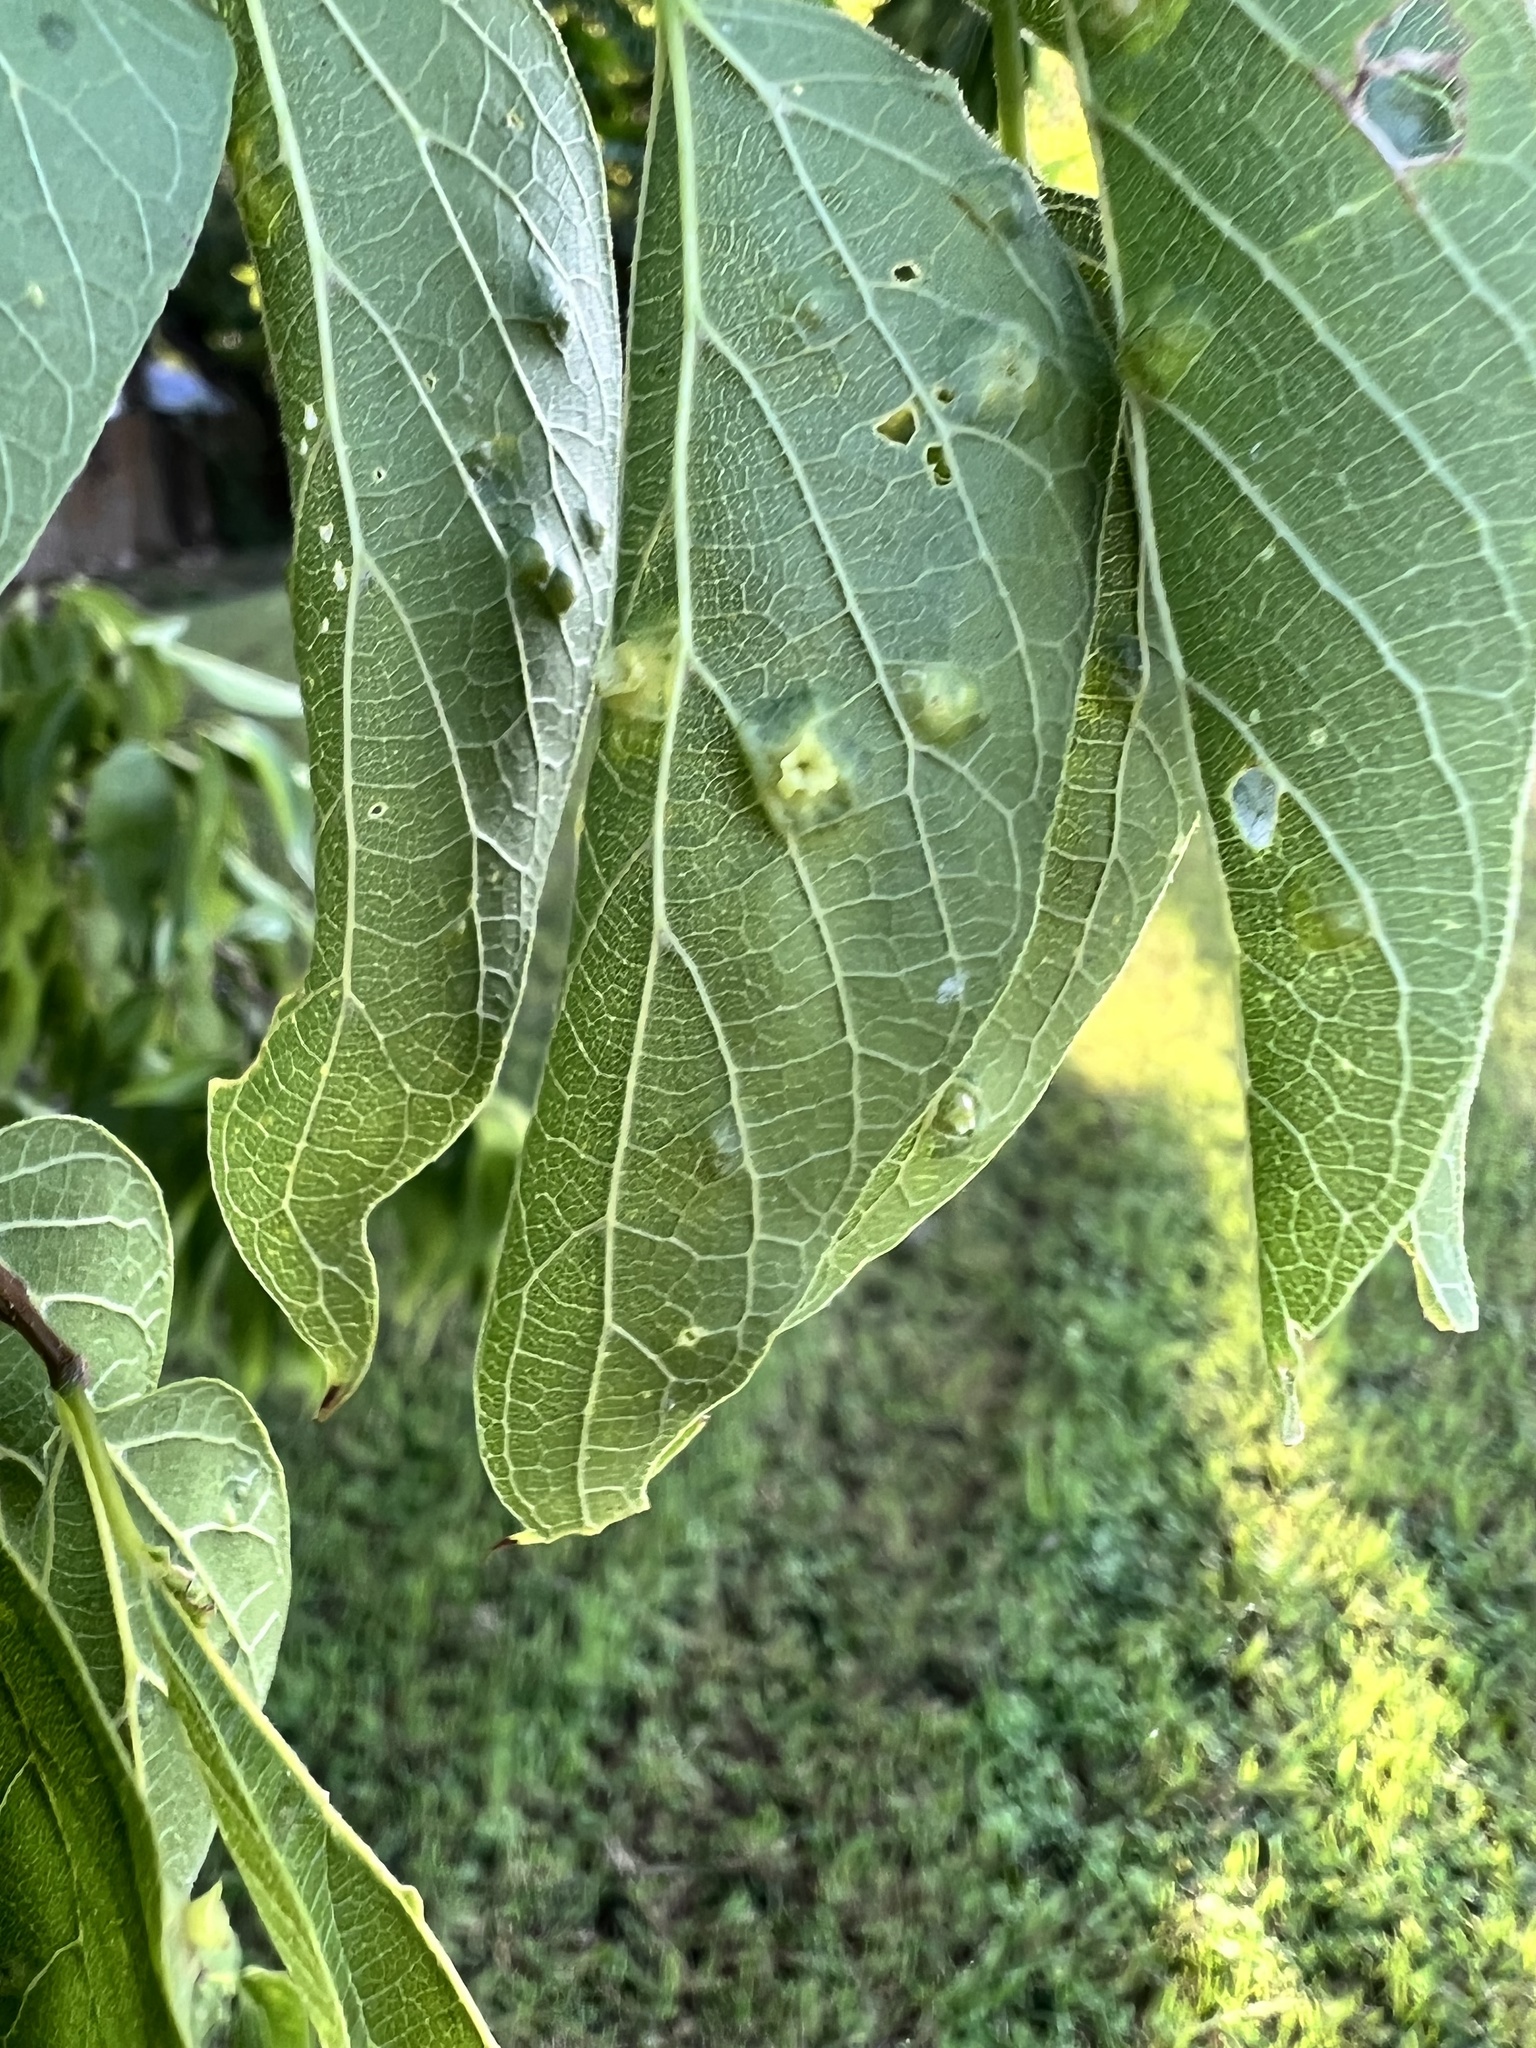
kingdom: Animalia
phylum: Arthropoda
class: Insecta
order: Hemiptera
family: Aphalaridae
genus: Pachypsylla
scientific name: Pachypsylla celtidisasterisca
